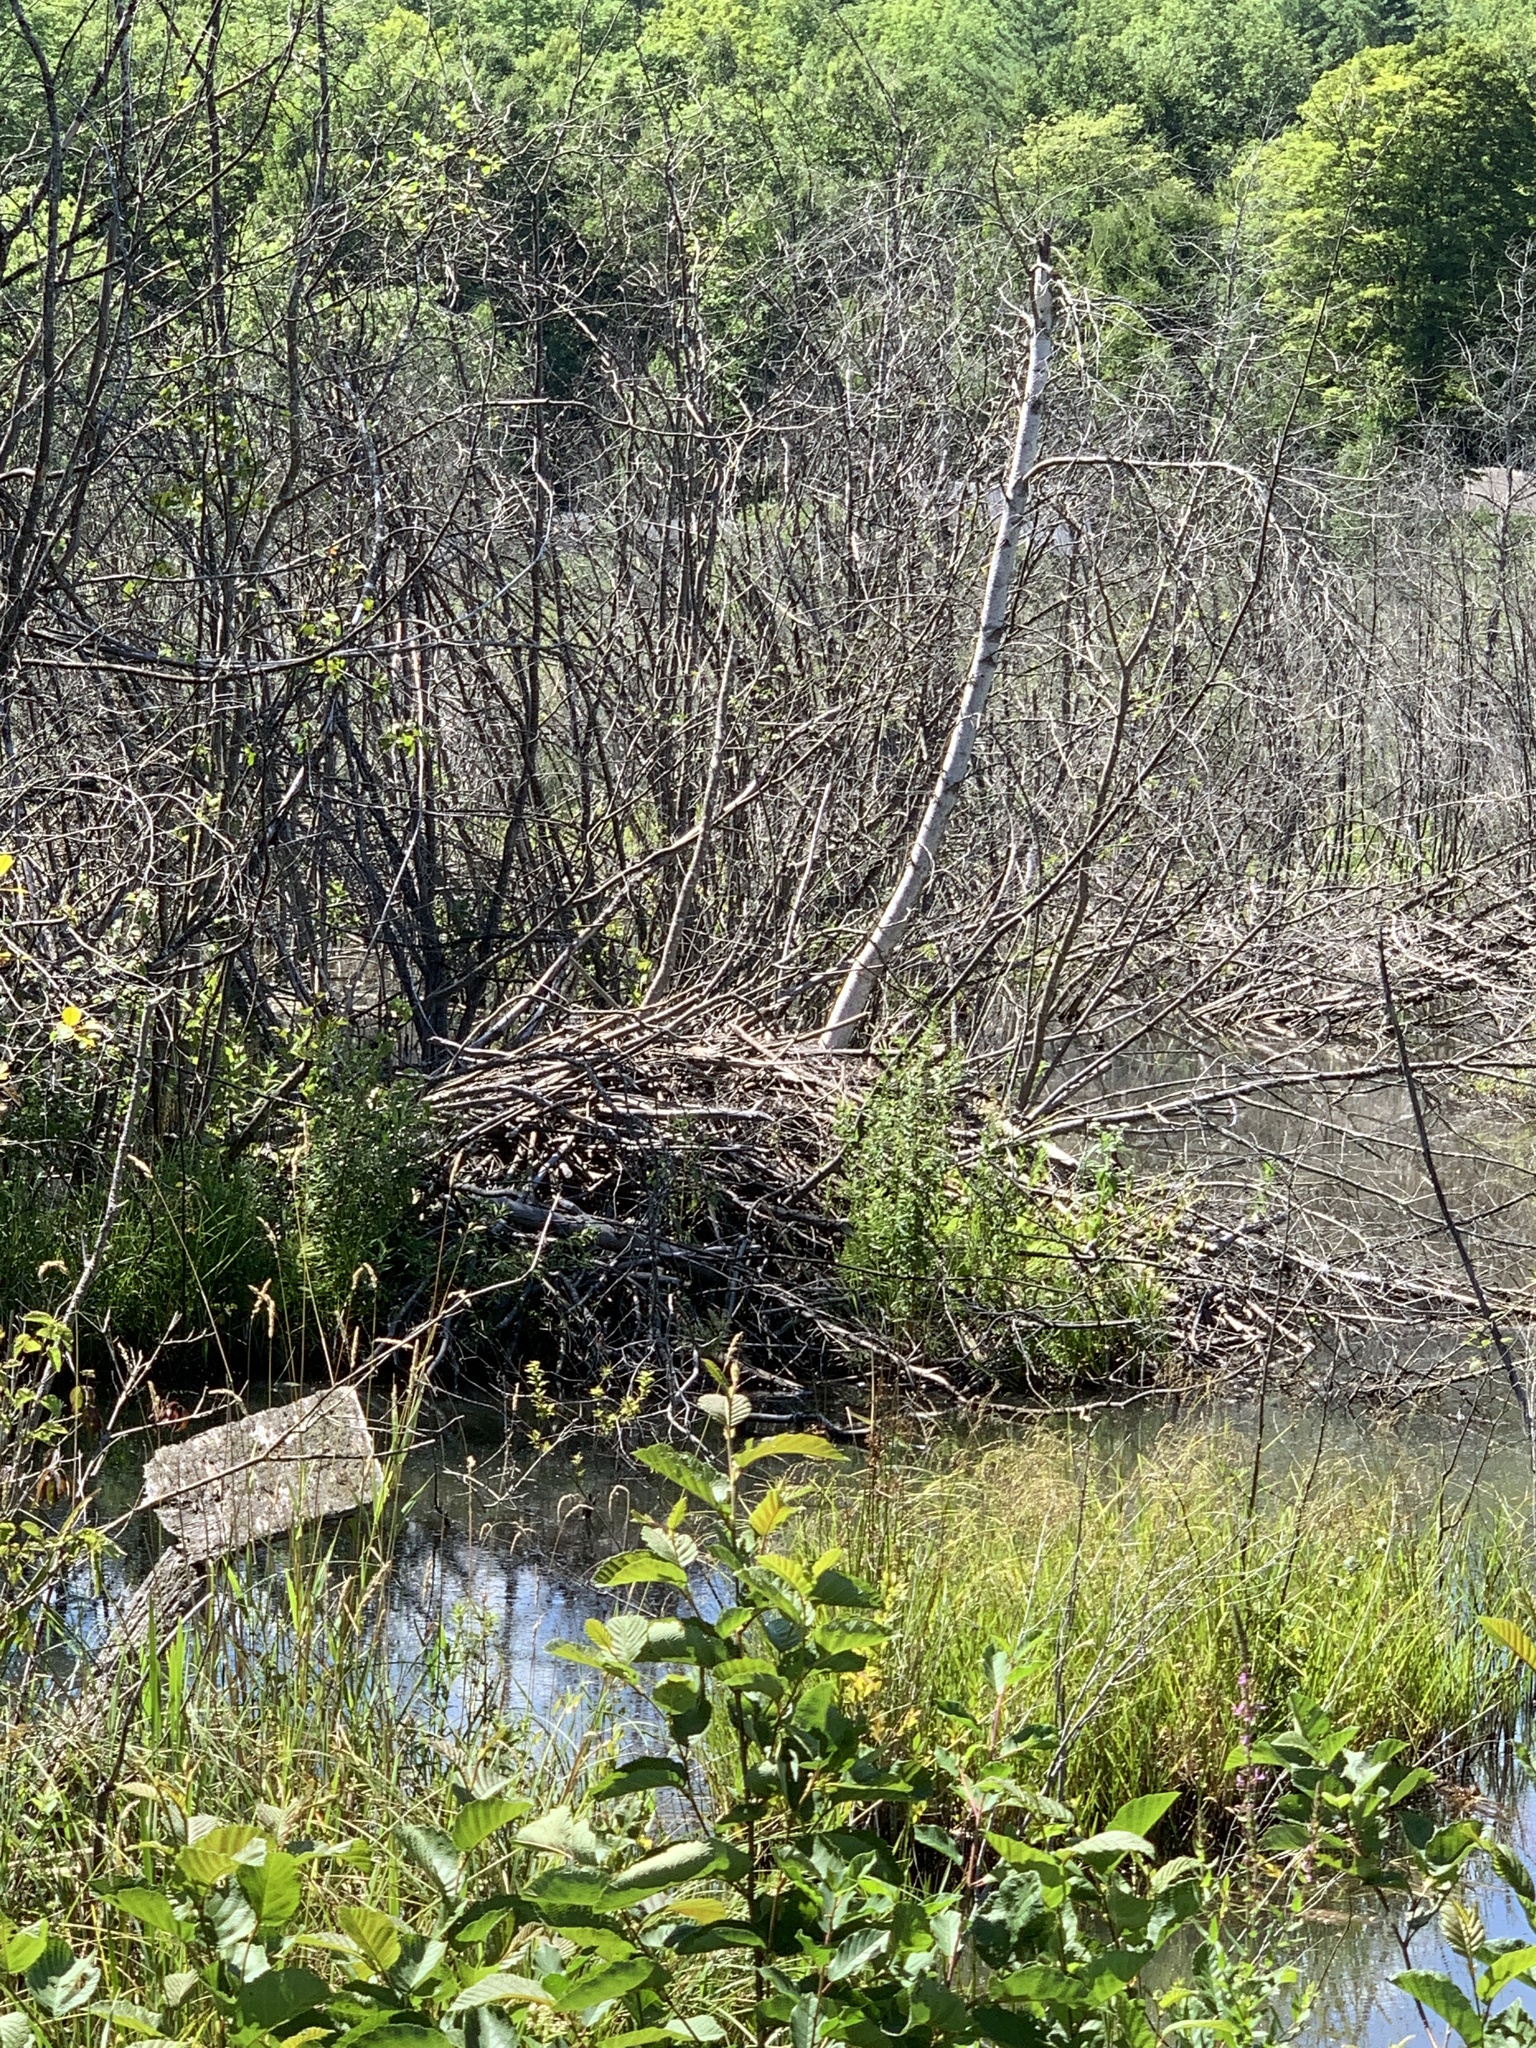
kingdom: Animalia
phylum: Chordata
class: Mammalia
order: Rodentia
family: Castoridae
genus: Castor
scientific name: Castor canadensis
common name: American beaver
